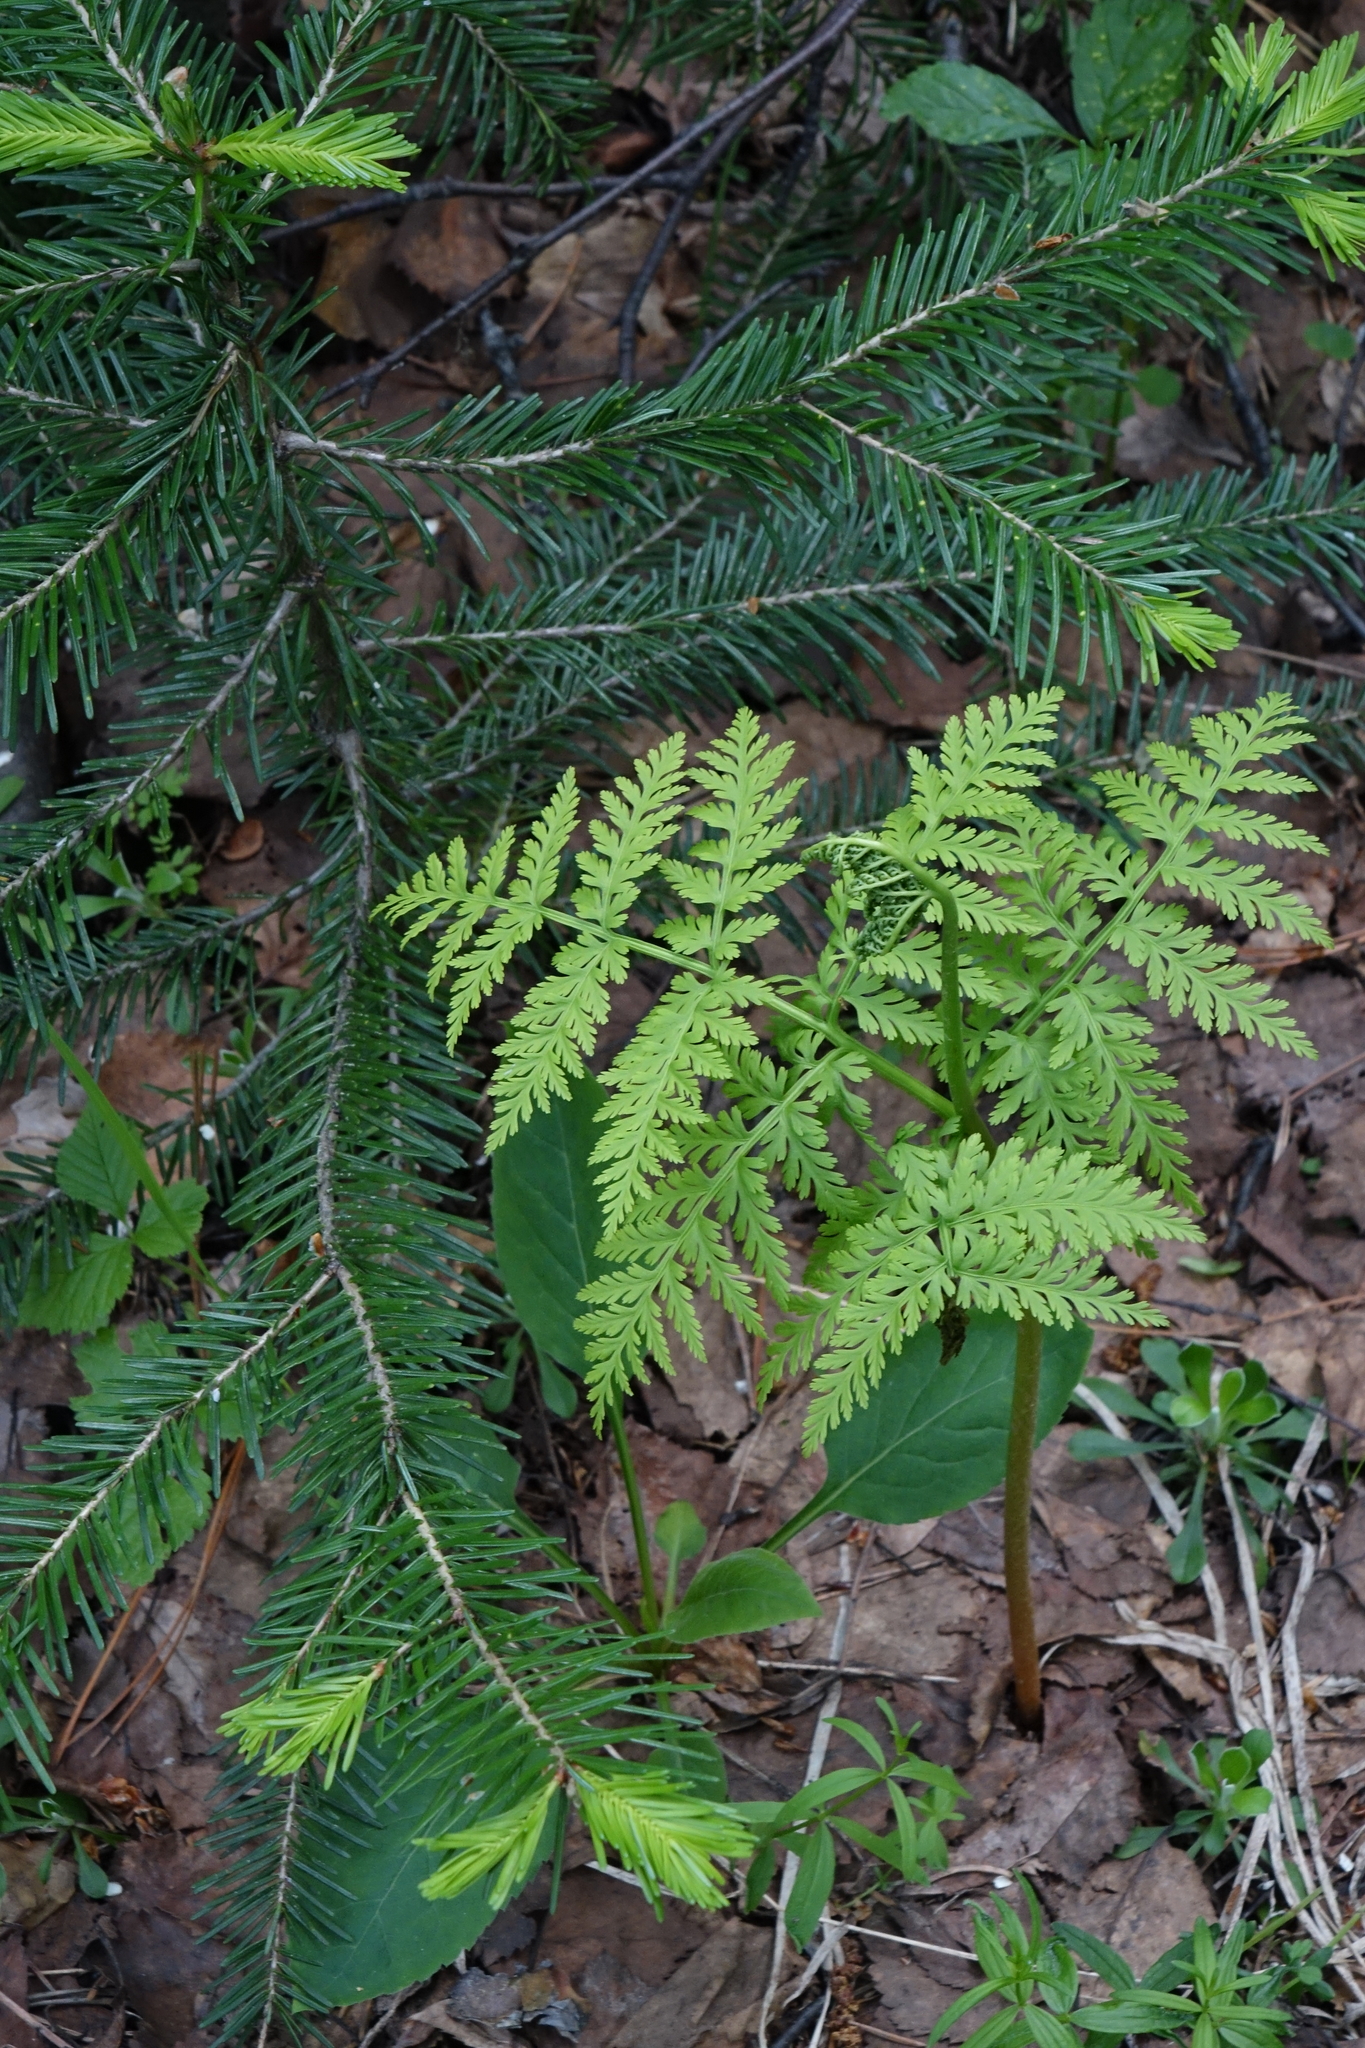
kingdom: Plantae
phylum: Tracheophyta
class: Pinopsida
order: Pinales
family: Pinaceae
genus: Abies
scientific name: Abies sibirica
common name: Siberian fir
